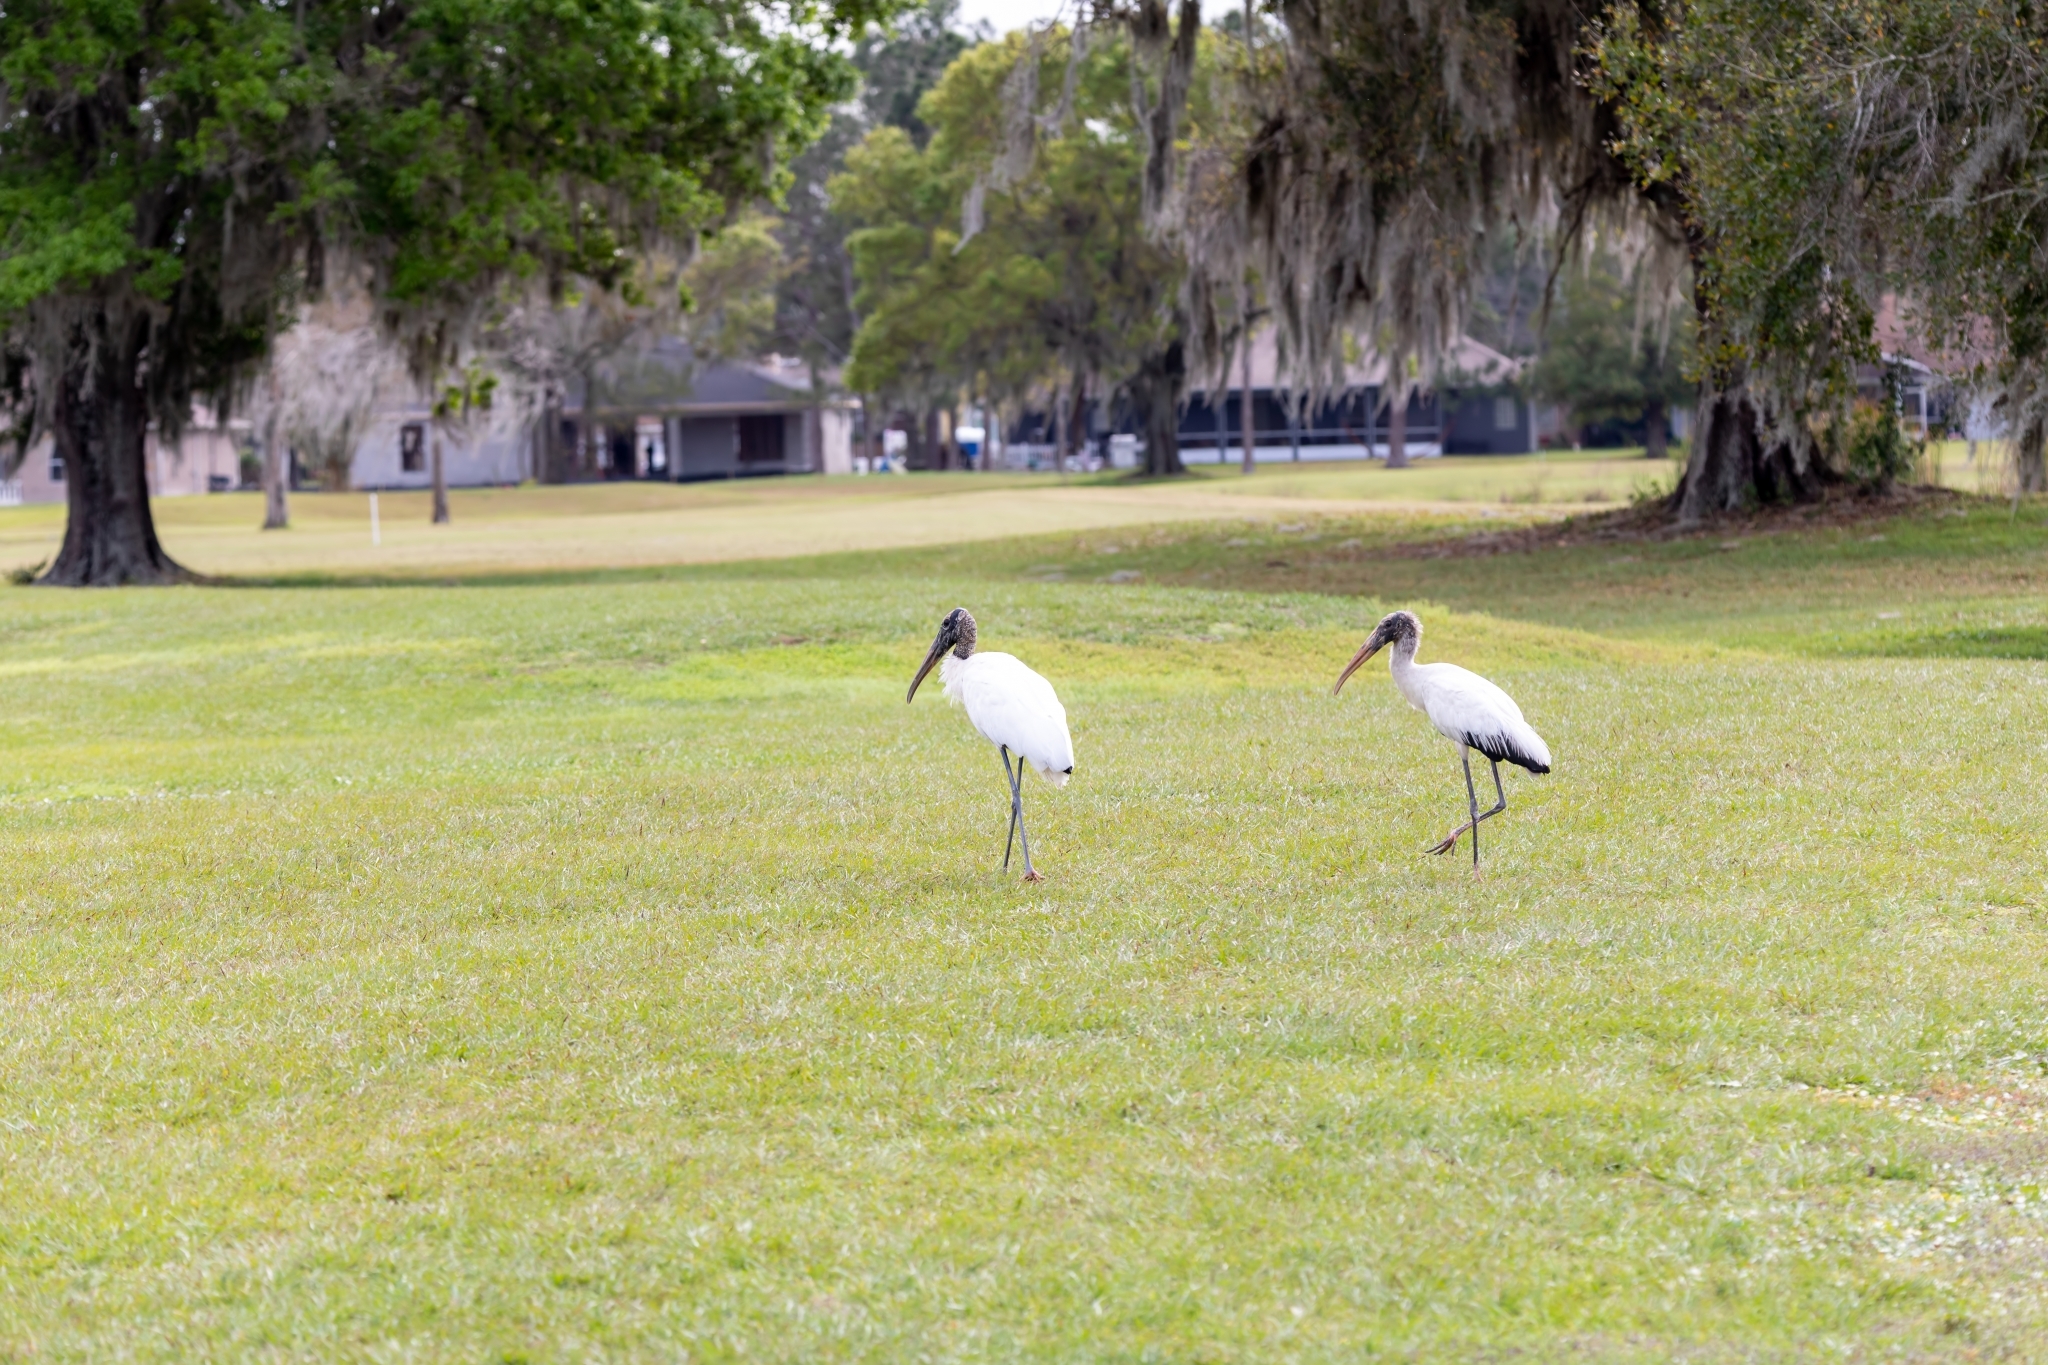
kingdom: Animalia
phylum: Chordata
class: Aves
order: Ciconiiformes
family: Ciconiidae
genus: Mycteria
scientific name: Mycteria americana
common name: Wood stork
